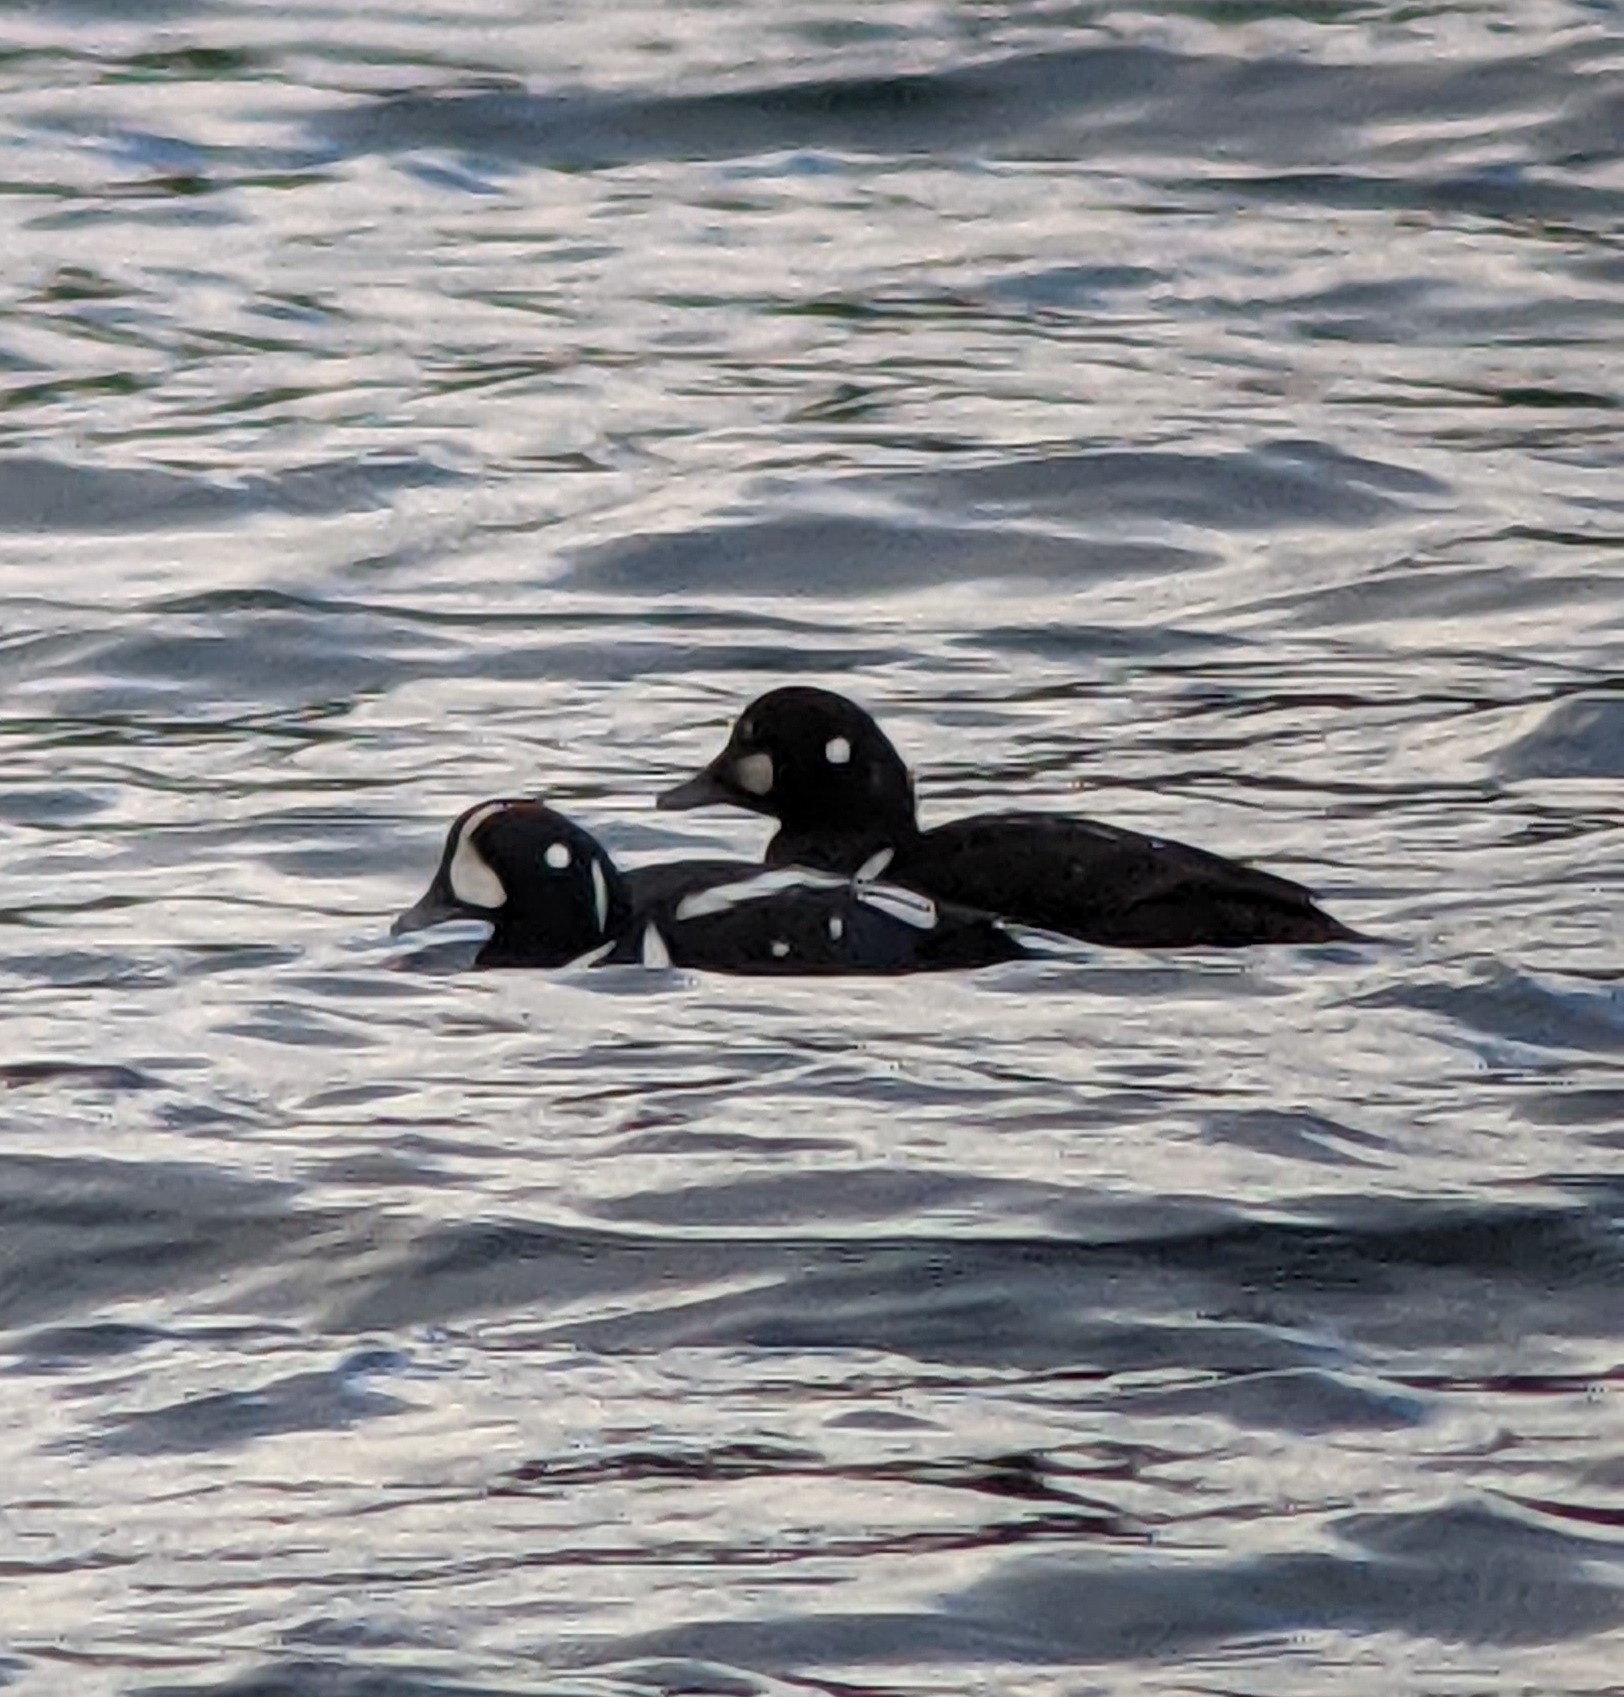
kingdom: Animalia
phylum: Chordata
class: Aves
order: Anseriformes
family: Anatidae
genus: Histrionicus
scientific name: Histrionicus histrionicus
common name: Harlequin duck
